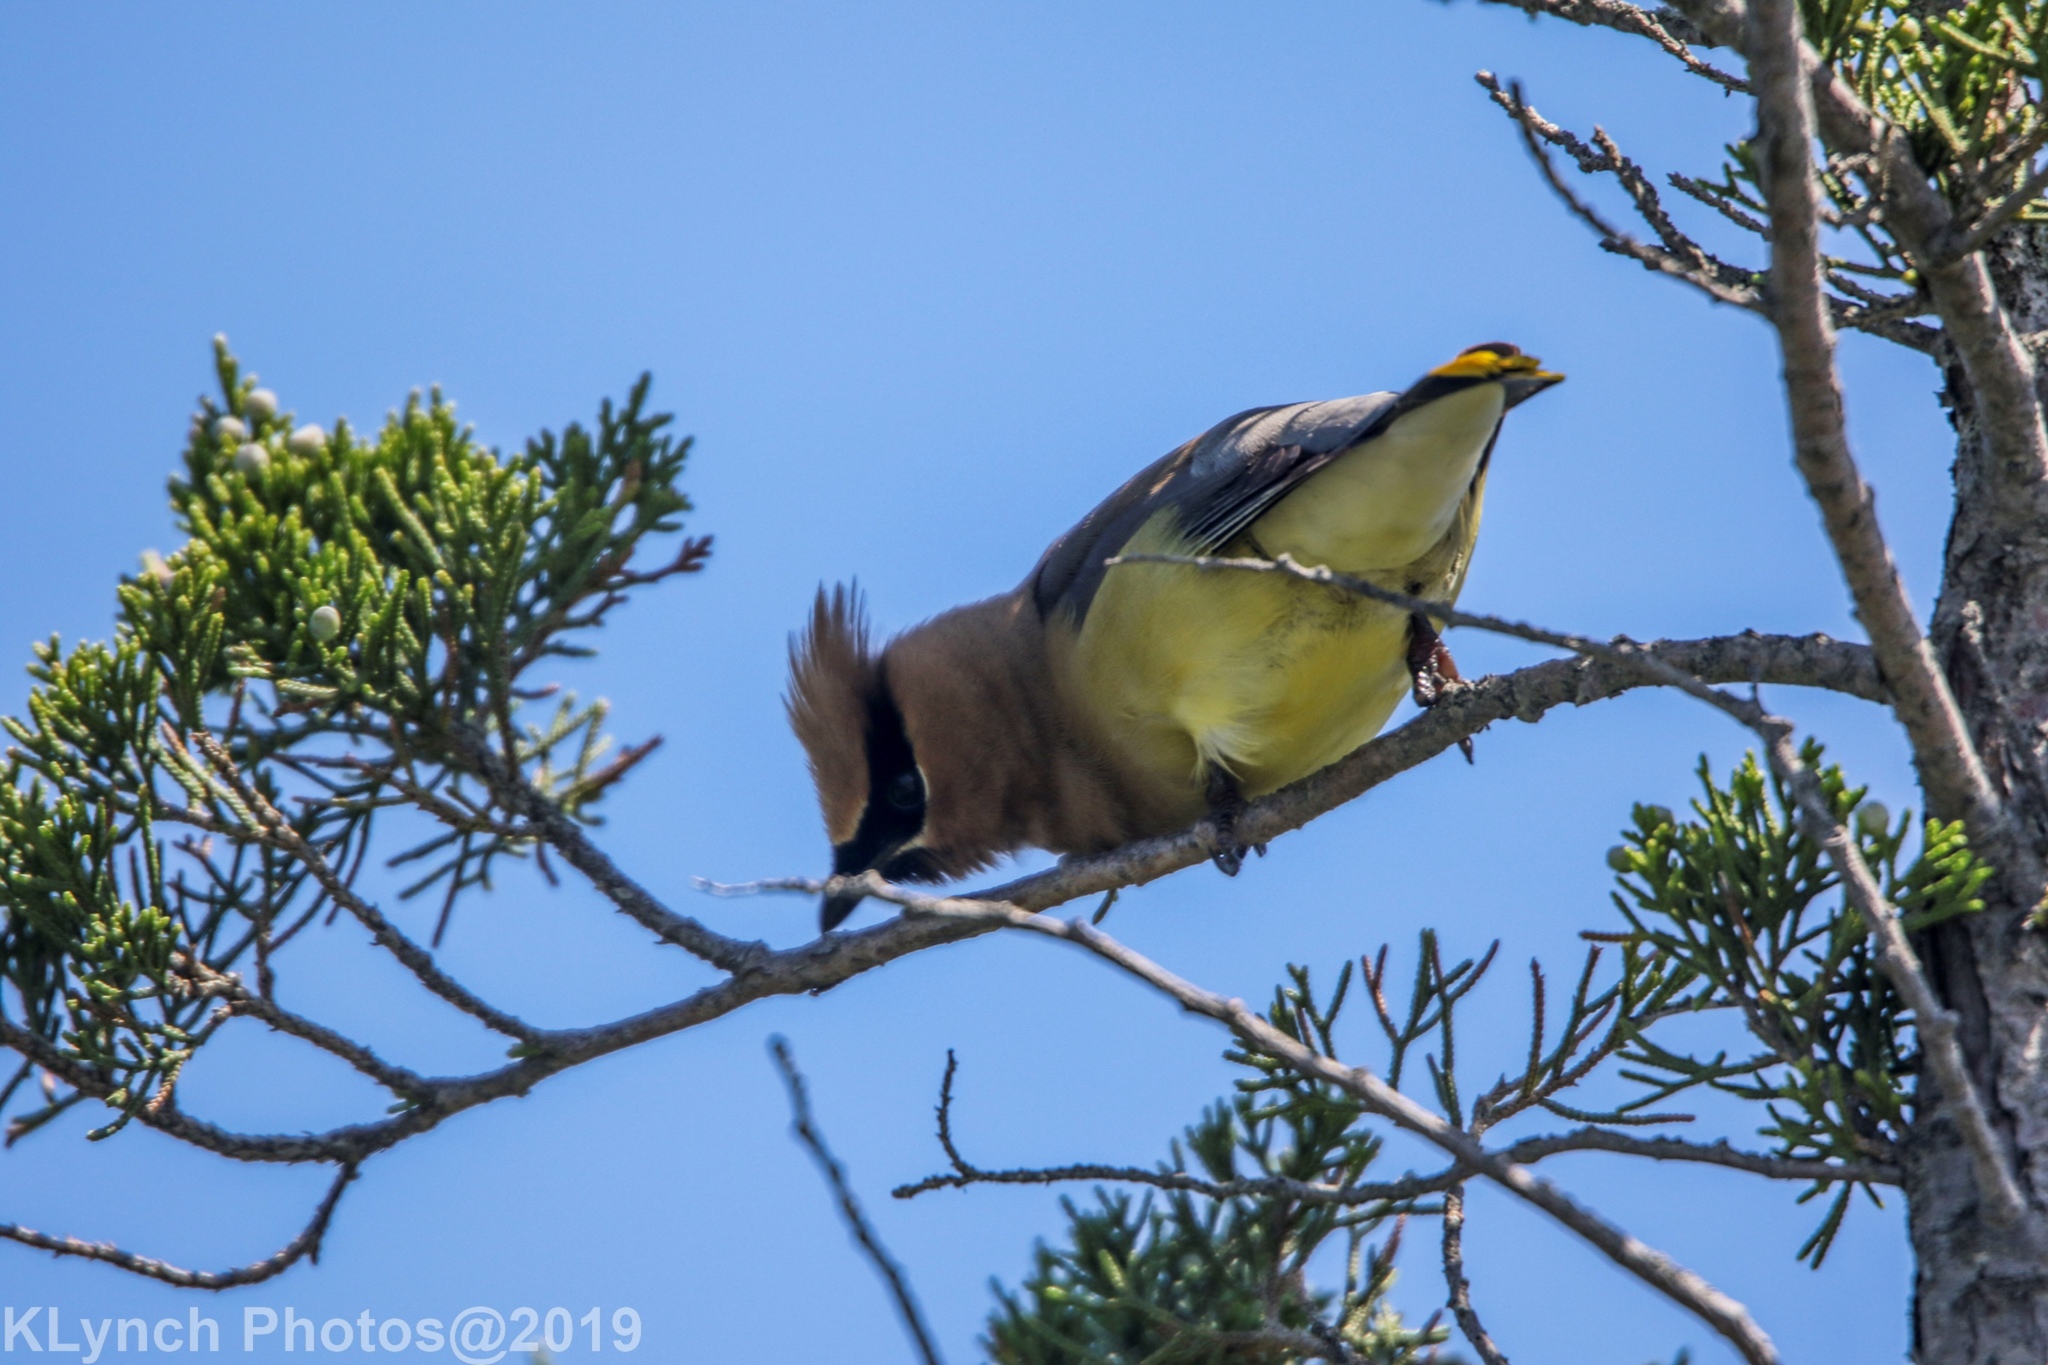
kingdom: Animalia
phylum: Chordata
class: Aves
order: Passeriformes
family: Bombycillidae
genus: Bombycilla
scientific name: Bombycilla cedrorum
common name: Cedar waxwing
